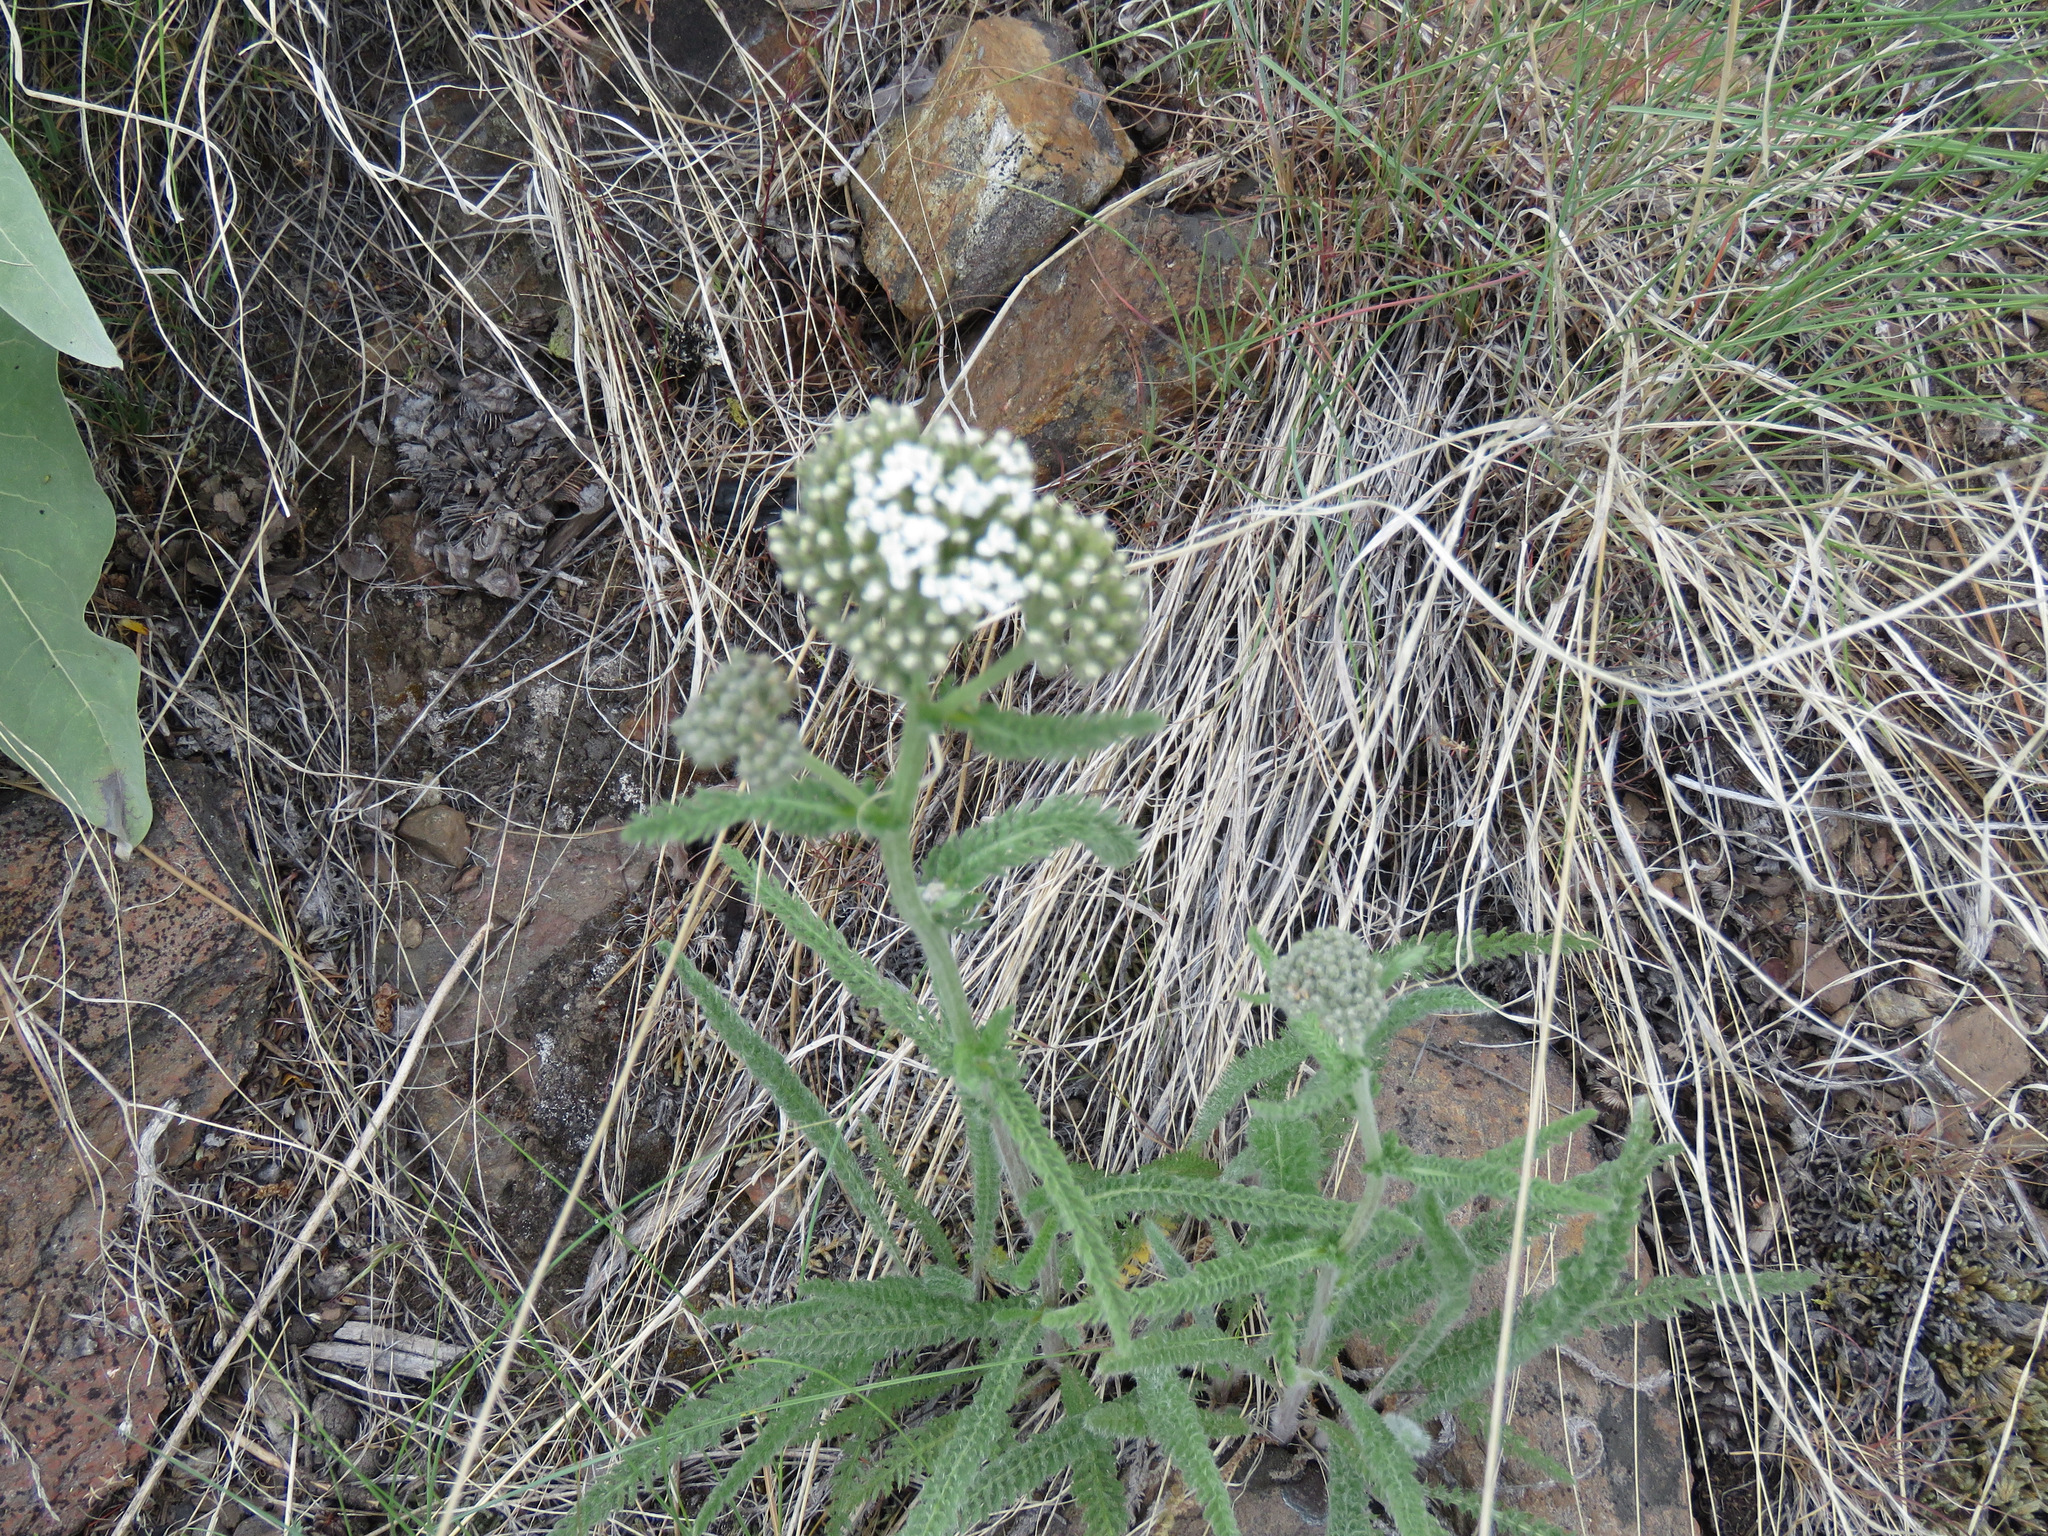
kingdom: Plantae
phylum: Tracheophyta
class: Magnoliopsida
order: Asterales
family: Asteraceae
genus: Achillea
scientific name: Achillea millefolium
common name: Yarrow
